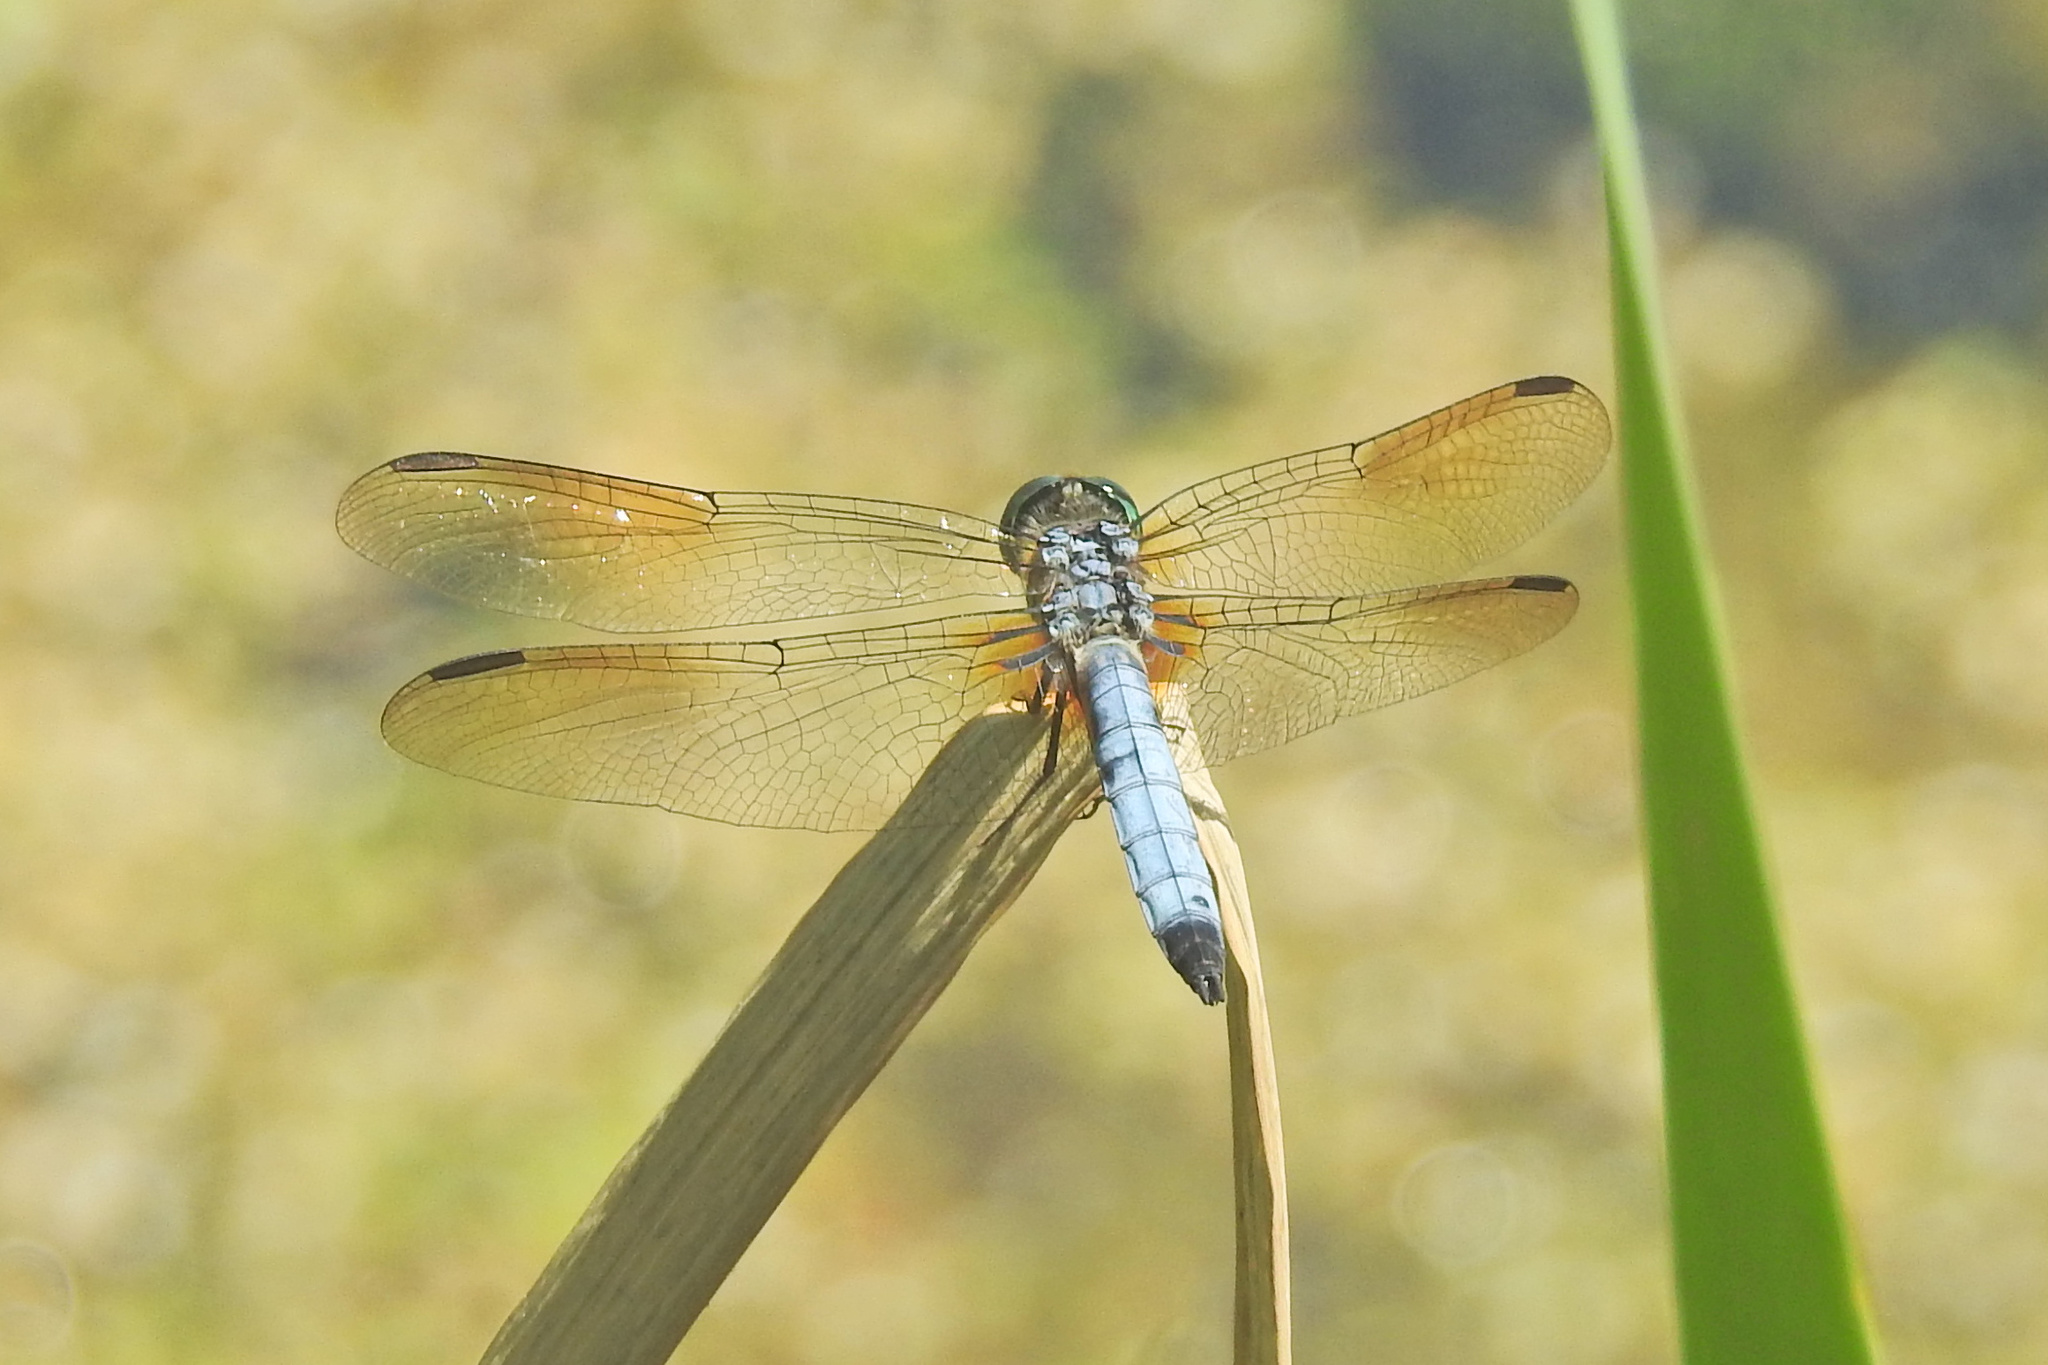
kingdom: Animalia
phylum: Arthropoda
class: Insecta
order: Odonata
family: Libellulidae
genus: Pachydiplax
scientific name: Pachydiplax longipennis
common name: Blue dasher
